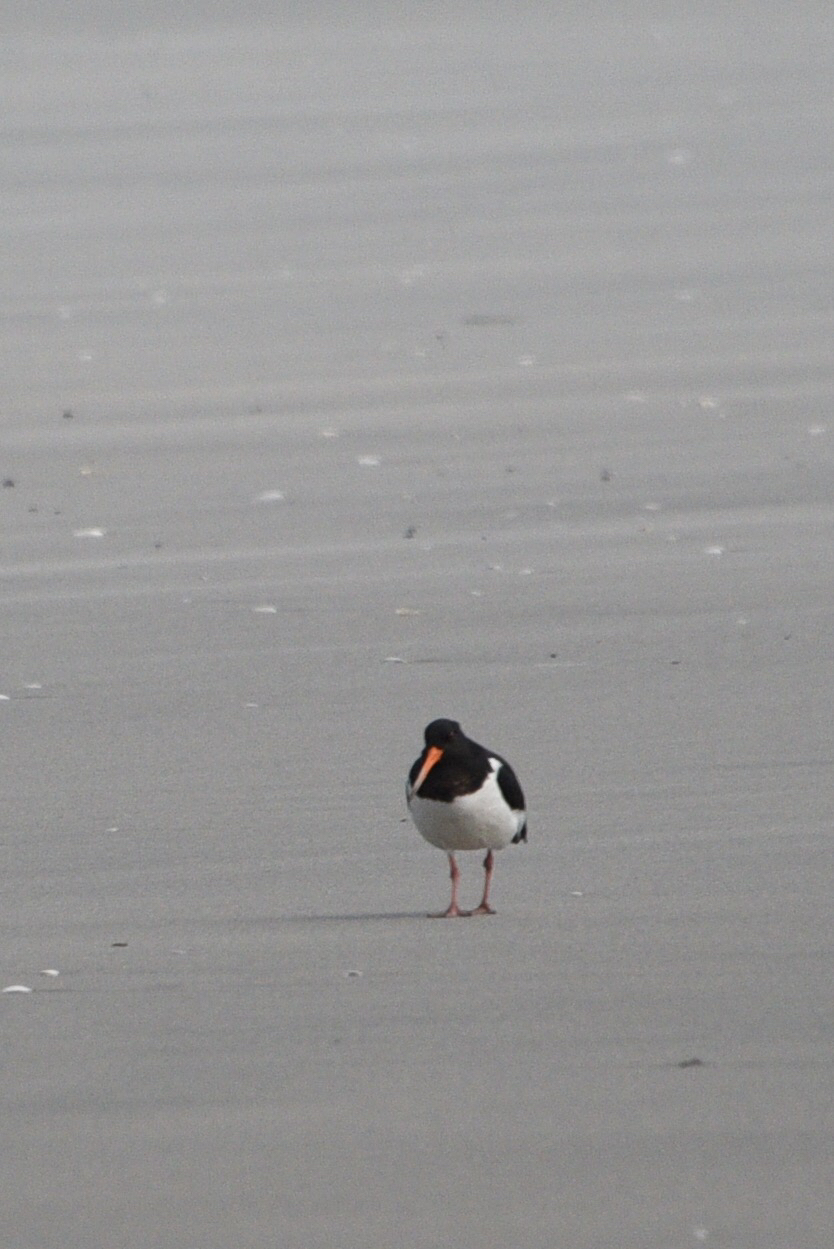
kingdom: Animalia
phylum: Chordata
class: Aves
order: Charadriiformes
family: Haematopodidae
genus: Haematopus
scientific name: Haematopus finschi
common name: South island oystercatcher
